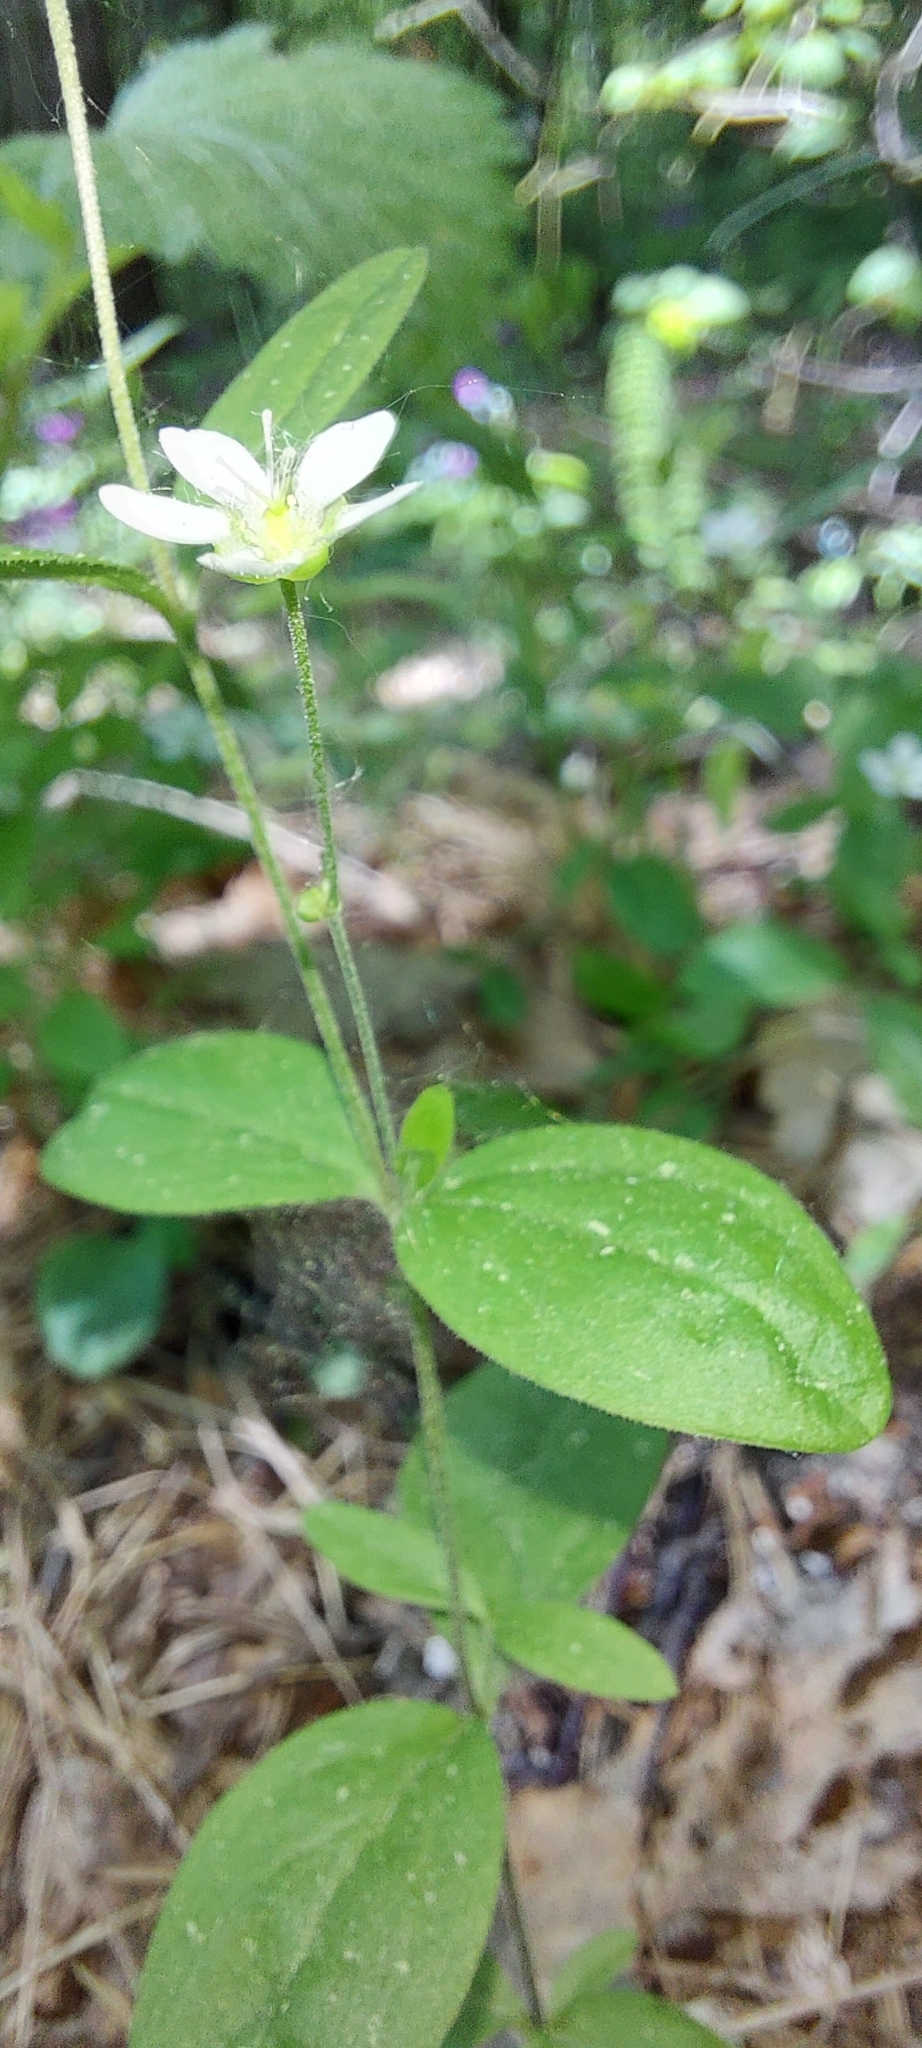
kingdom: Plantae
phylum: Tracheophyta
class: Magnoliopsida
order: Caryophyllales
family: Caryophyllaceae
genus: Moehringia
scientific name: Moehringia lateriflora
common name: Blunt-leaved sandwort
